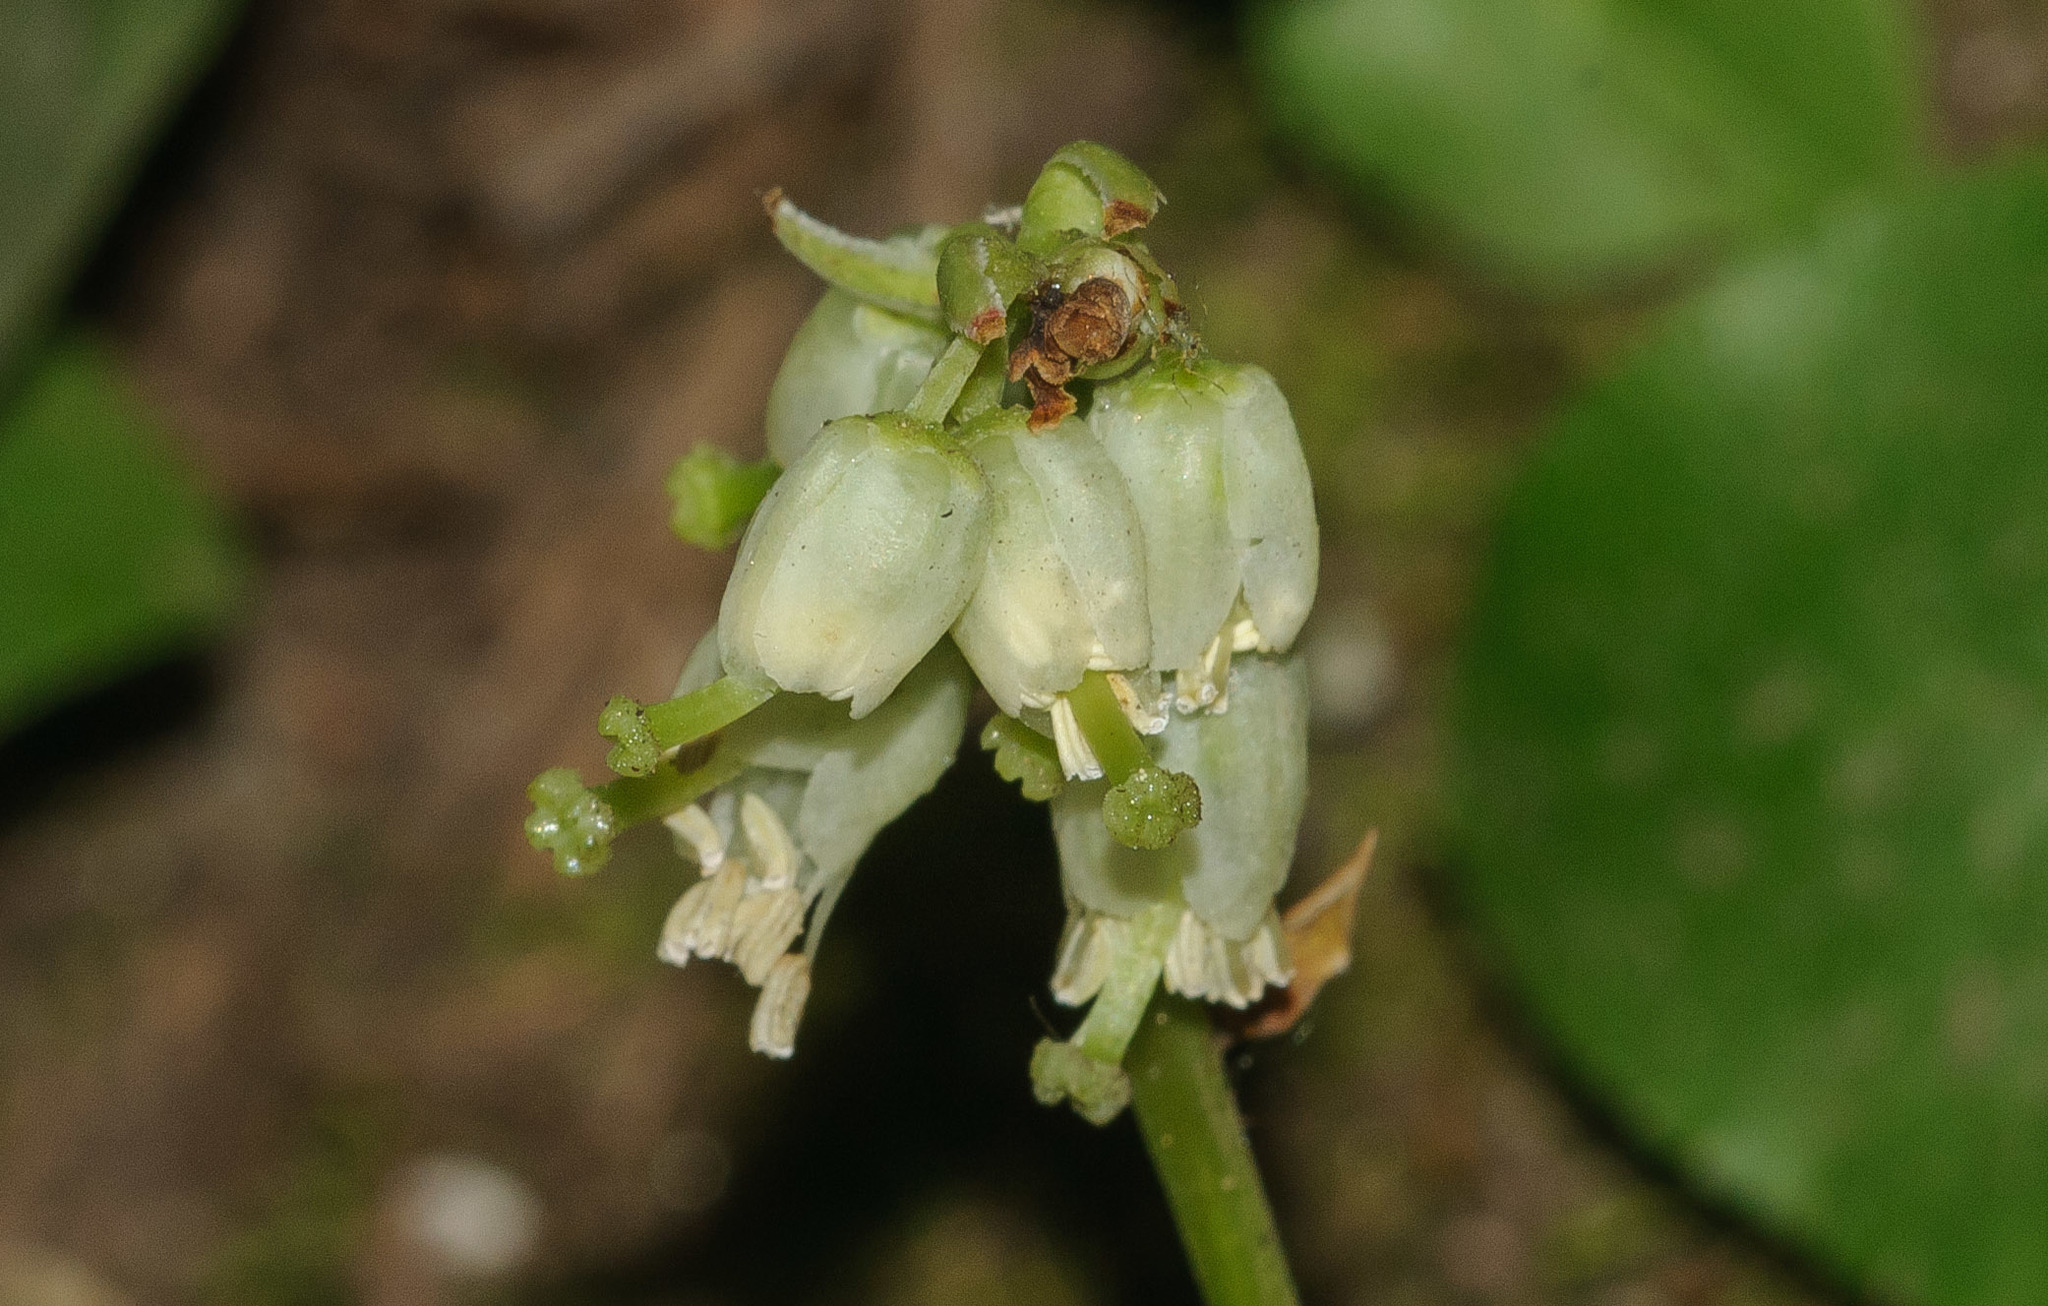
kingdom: Plantae
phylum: Tracheophyta
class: Magnoliopsida
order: Ericales
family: Ericaceae
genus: Orthilia
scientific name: Orthilia secunda
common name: One-sided orthilia
